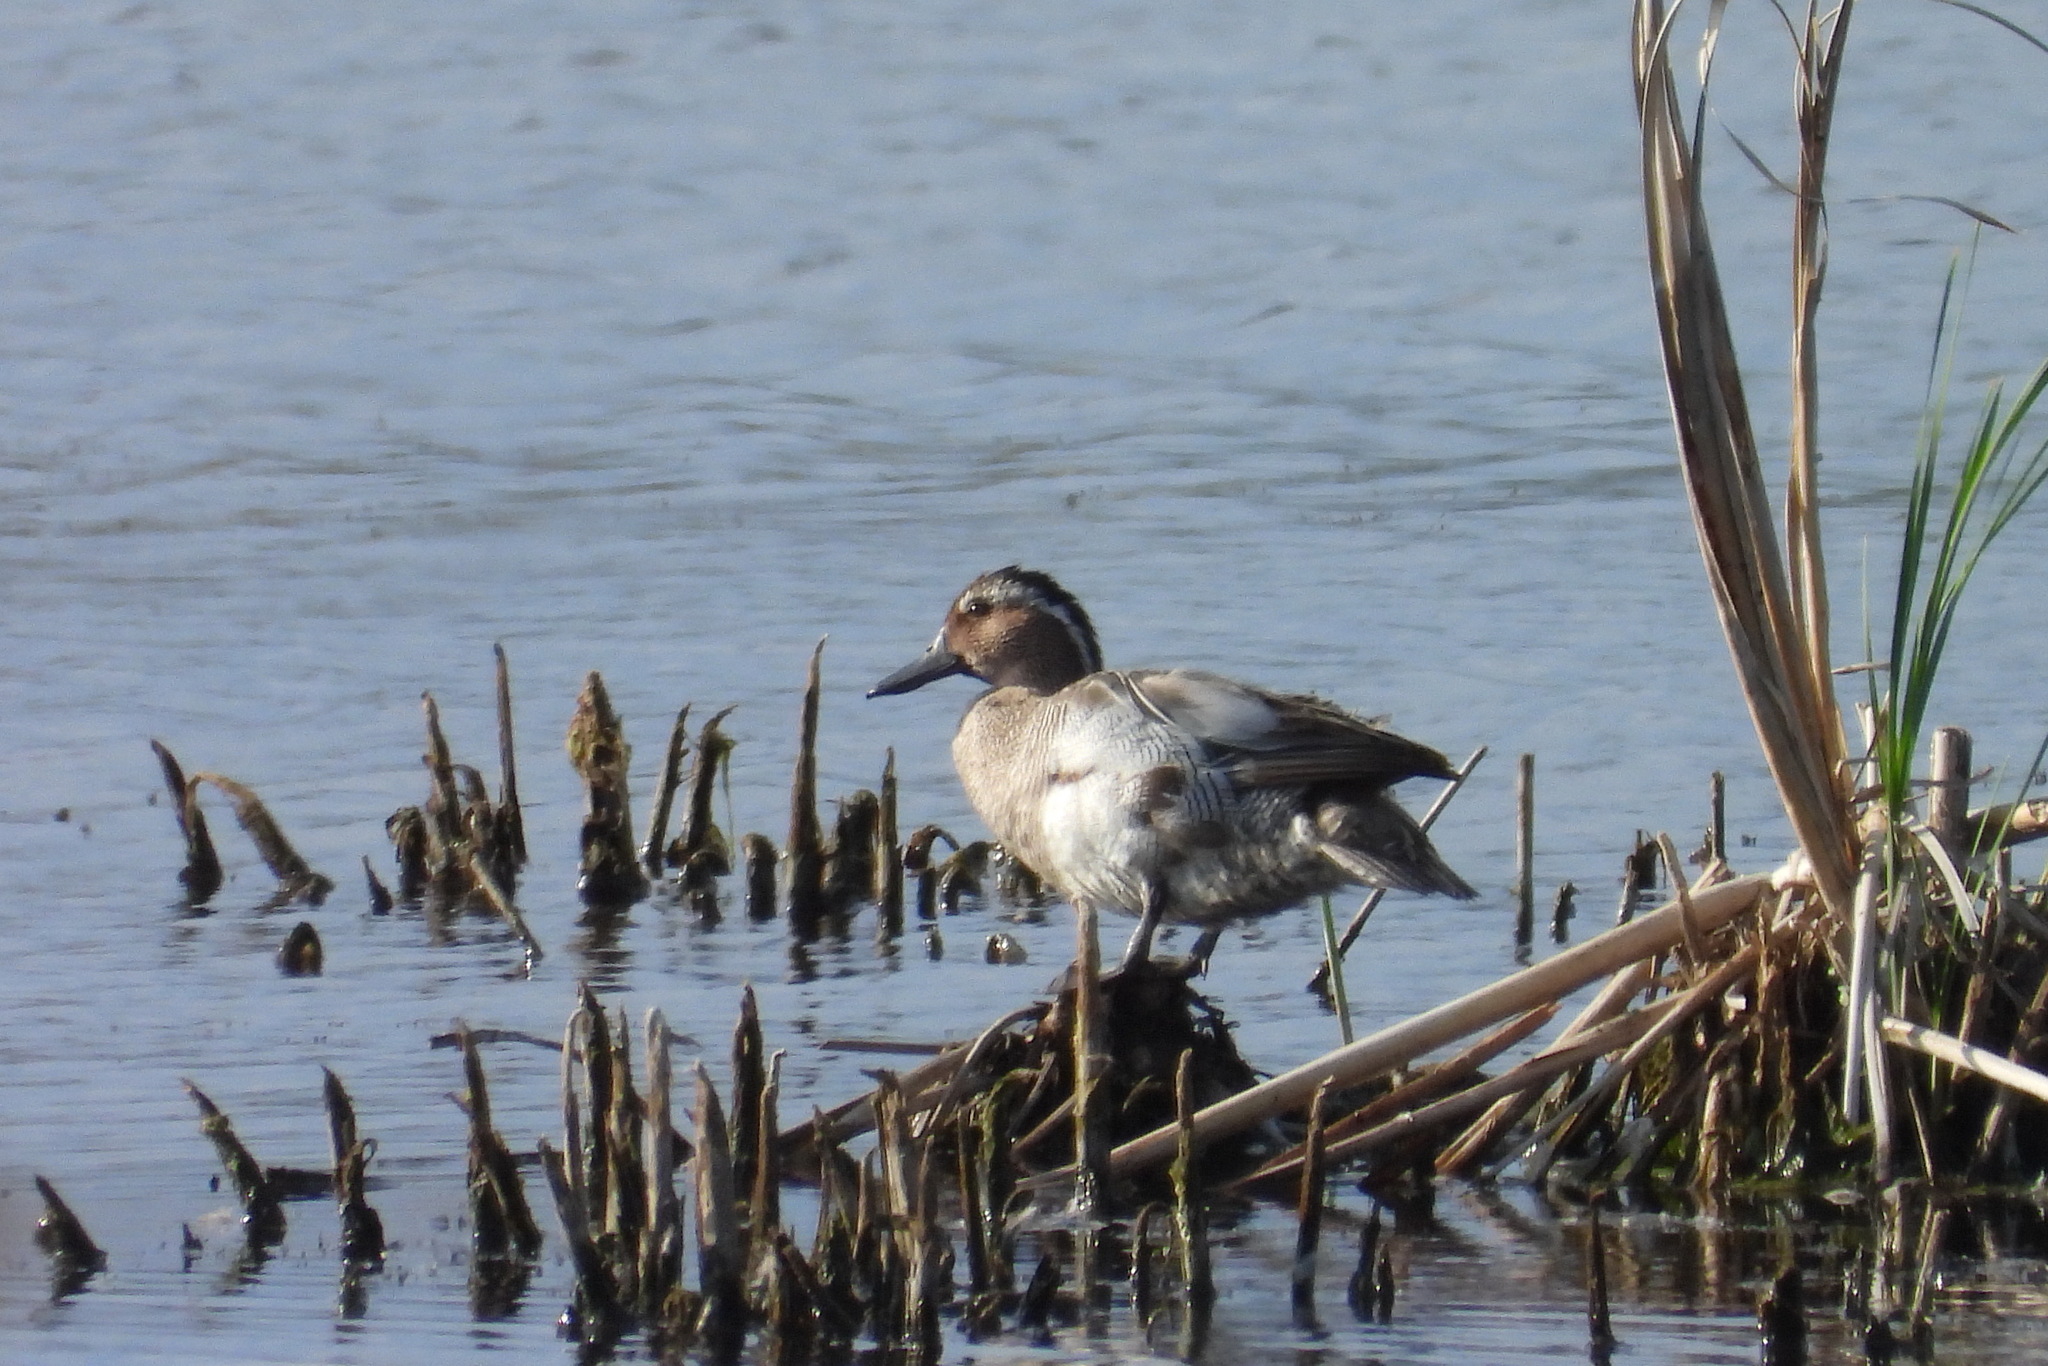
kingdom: Animalia
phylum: Chordata
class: Aves
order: Anseriformes
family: Anatidae
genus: Spatula
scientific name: Spatula querquedula
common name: Garganey
